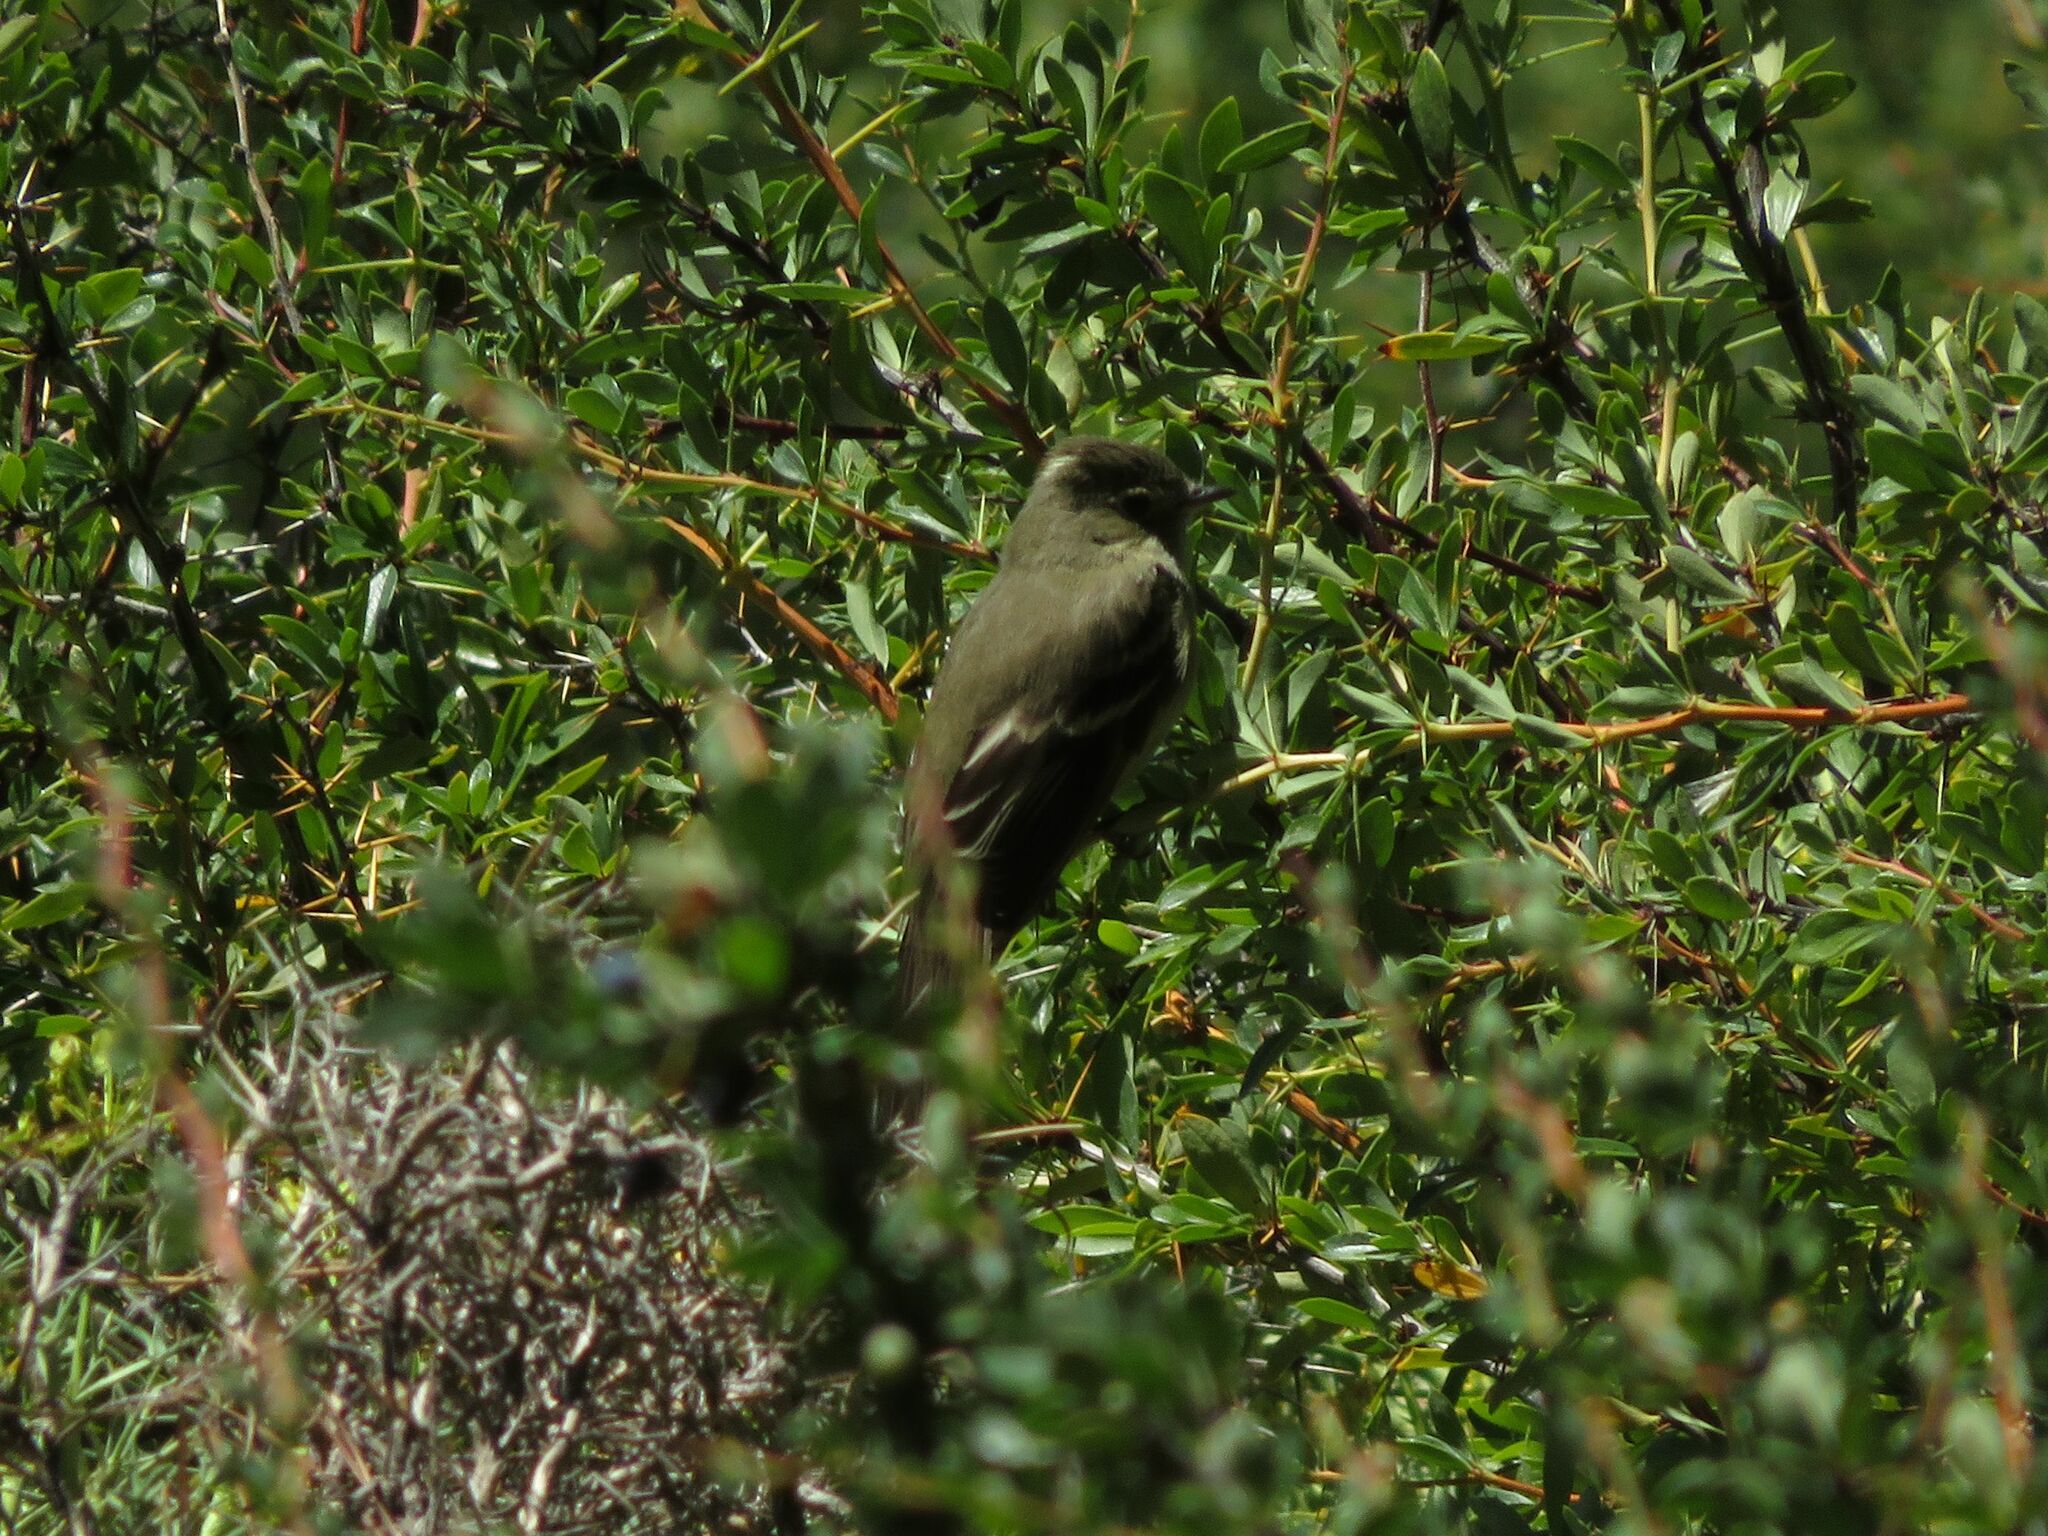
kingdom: Animalia
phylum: Chordata
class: Aves
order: Passeriformes
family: Tyrannidae
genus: Elaenia
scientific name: Elaenia albiceps
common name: White-crested elaenia
